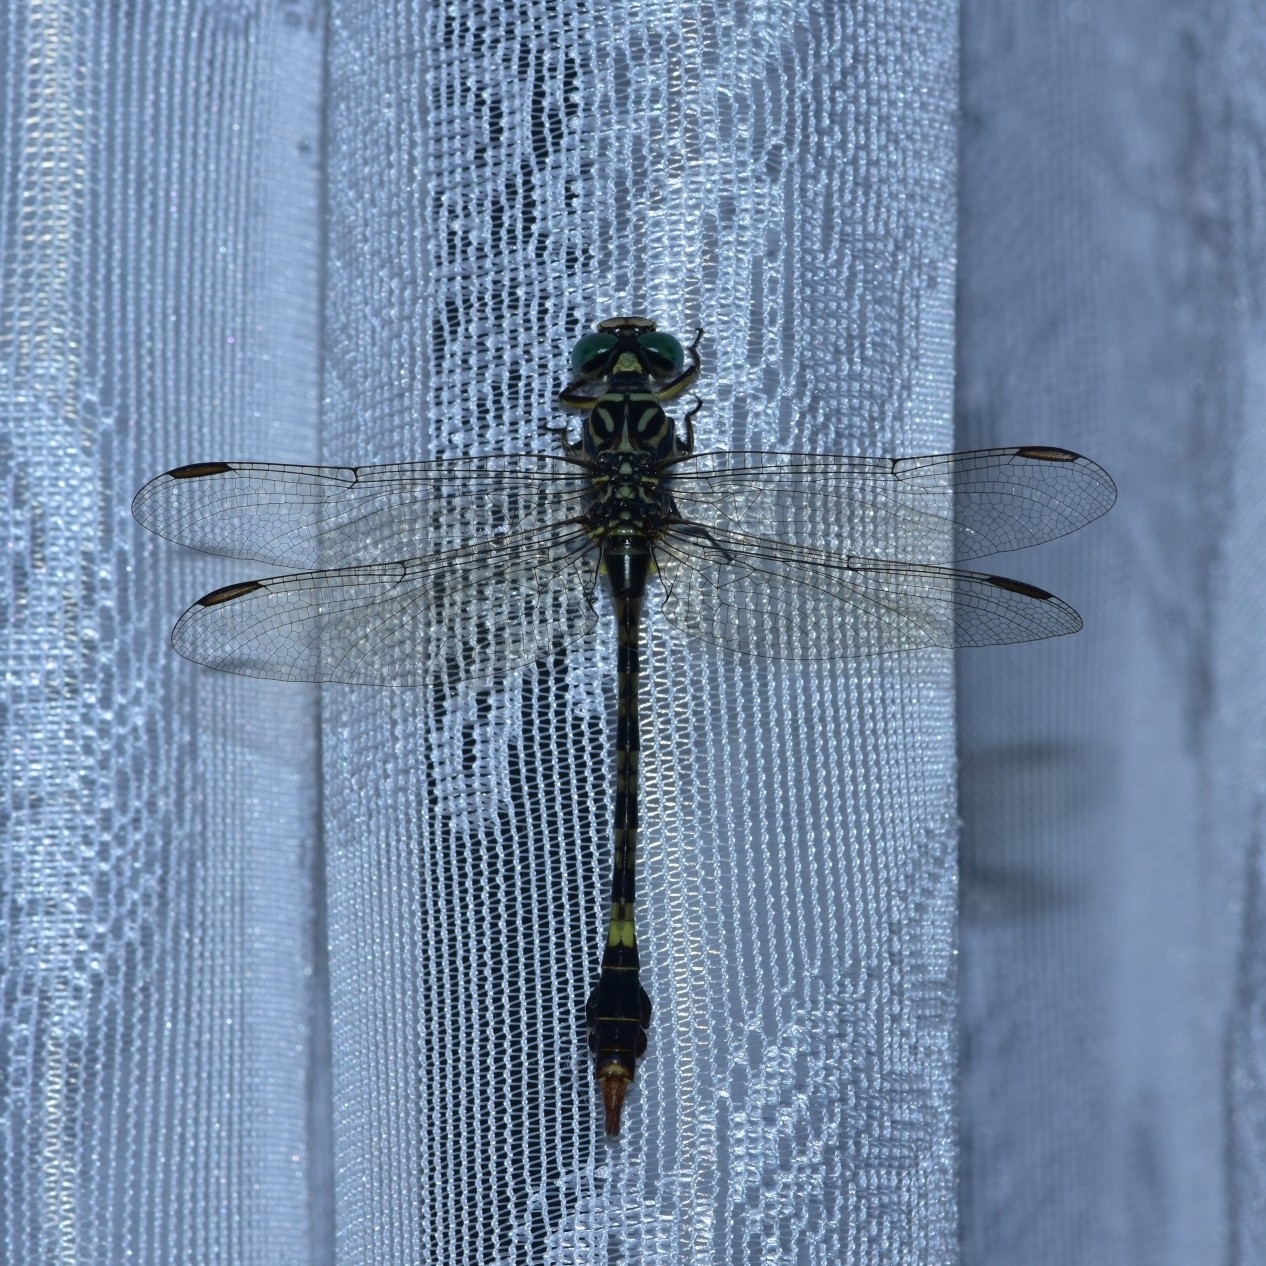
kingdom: Animalia
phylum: Arthropoda
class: Insecta
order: Odonata
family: Gomphidae
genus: Paragomphus
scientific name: Paragomphus lineatus
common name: Lined hooktail
